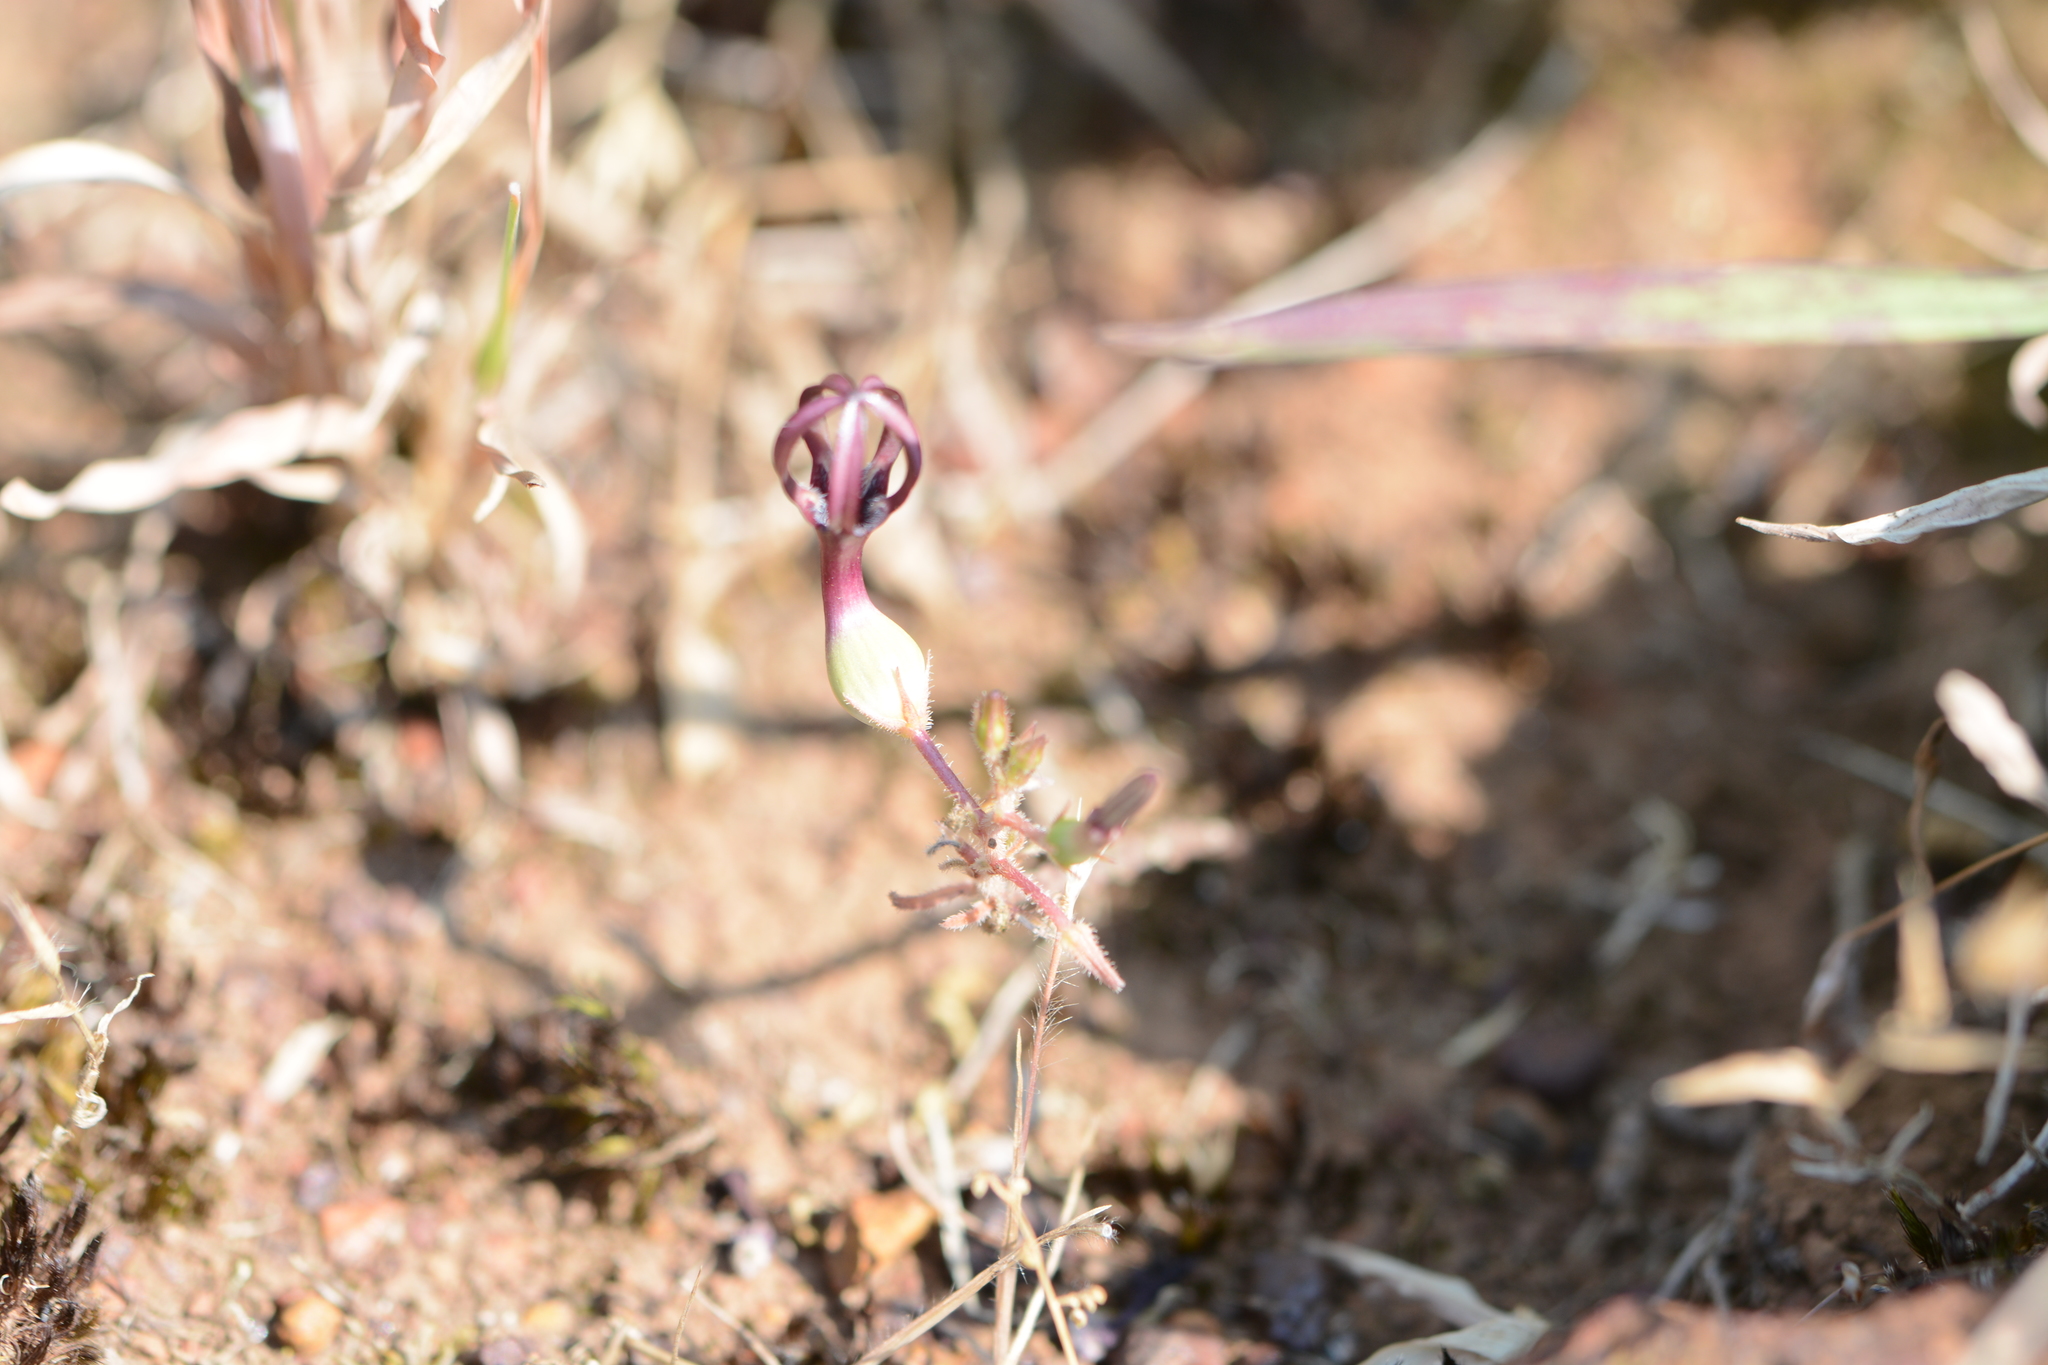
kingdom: Plantae
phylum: Tracheophyta
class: Magnoliopsida
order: Gentianales
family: Apocynaceae
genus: Ceropegia
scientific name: Ceropegia jainii
